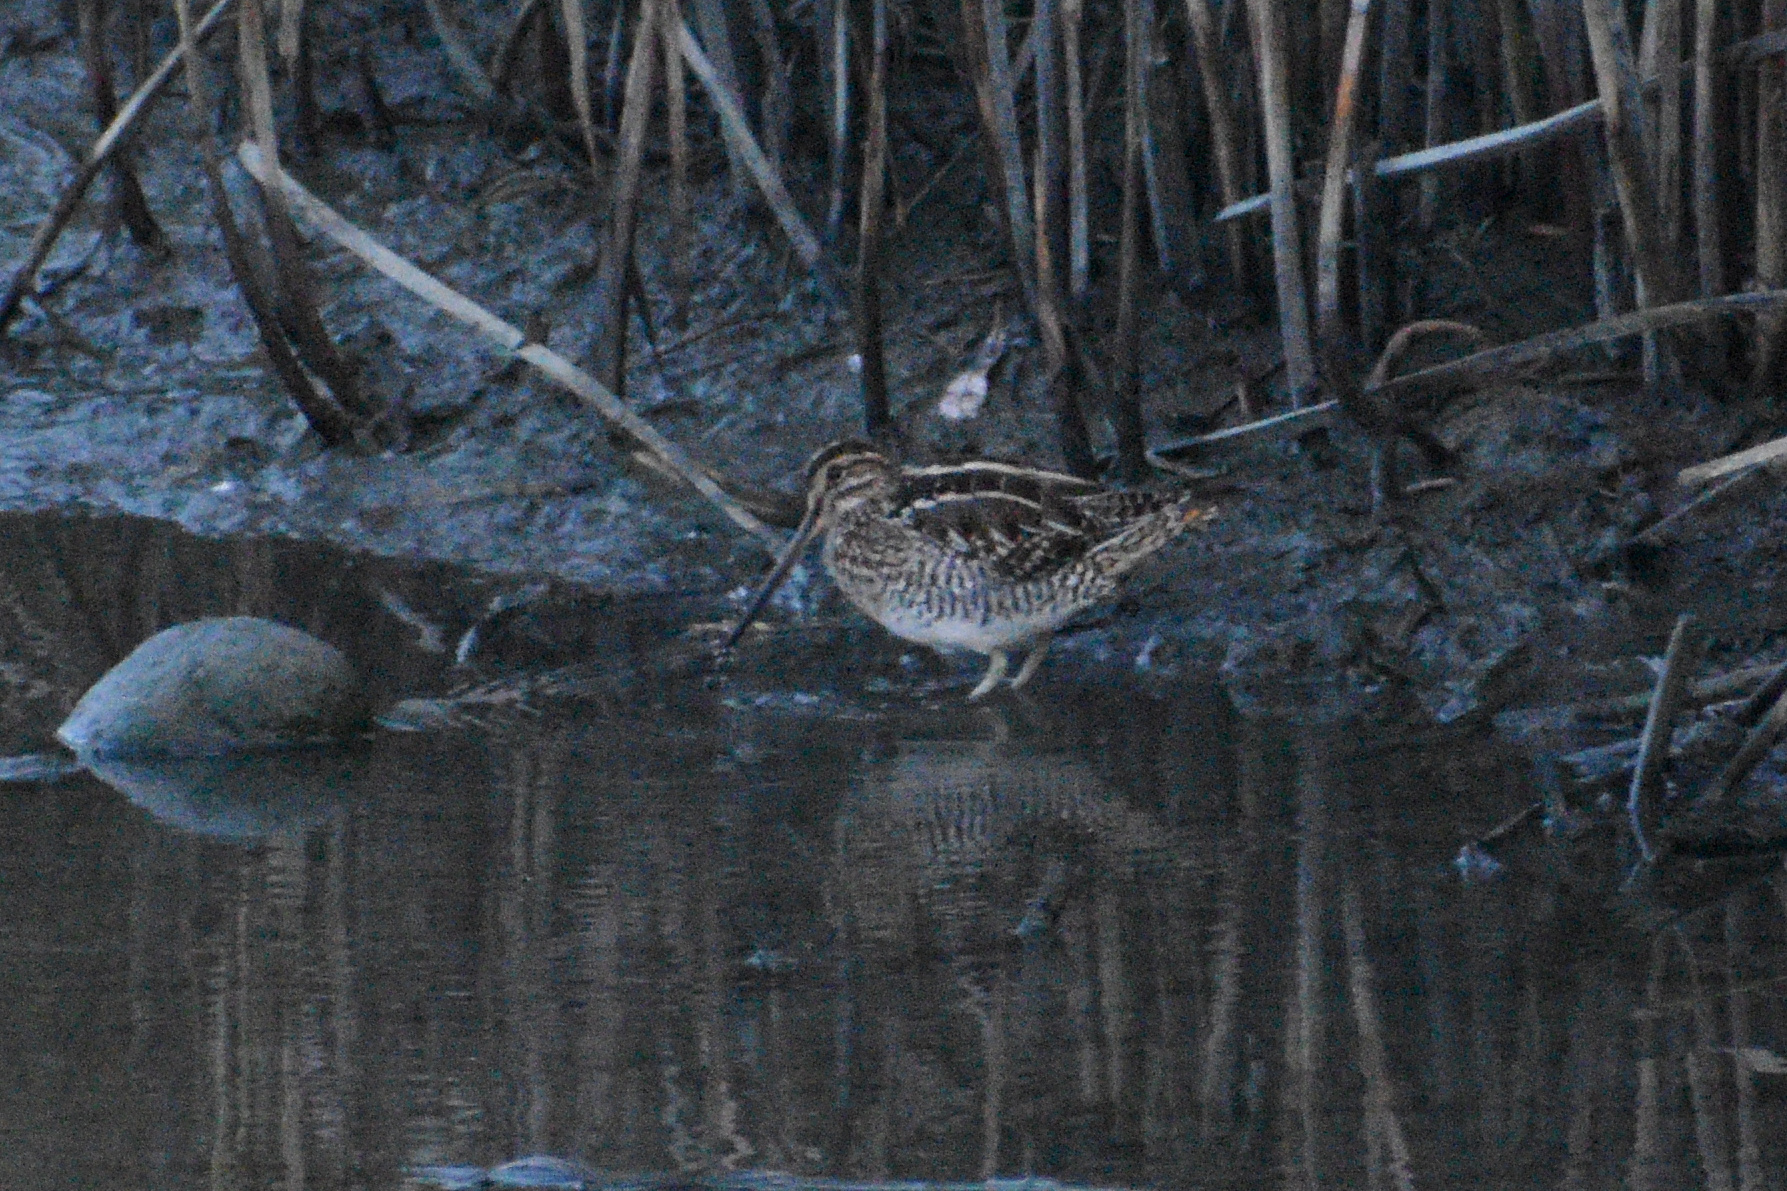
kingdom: Animalia
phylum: Chordata
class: Aves
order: Charadriiformes
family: Scolopacidae
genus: Gallinago
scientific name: Gallinago delicata
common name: Wilson's snipe
